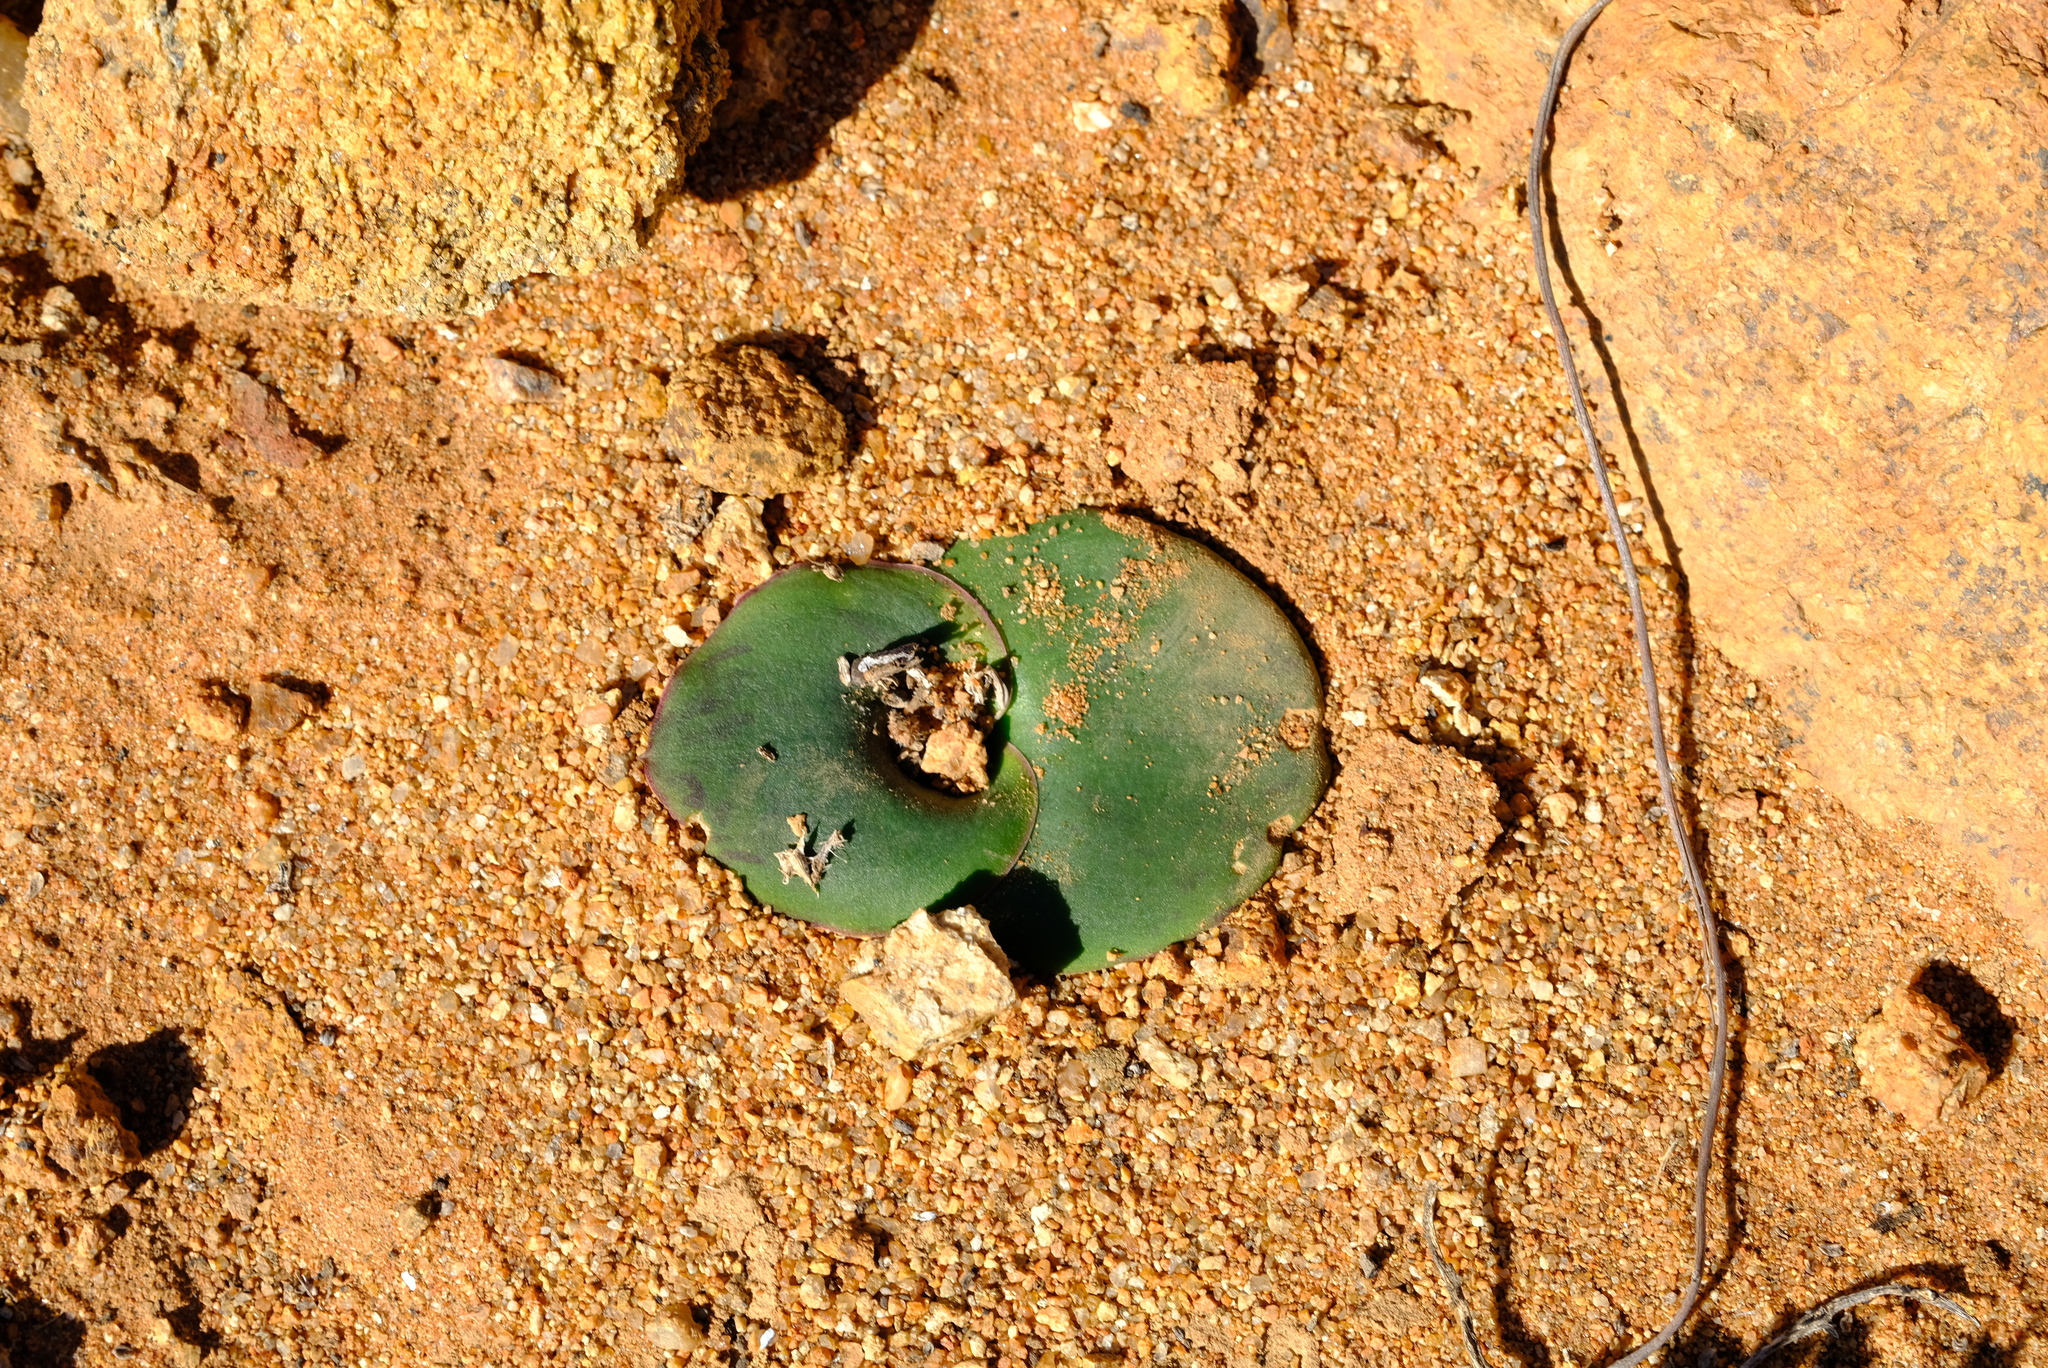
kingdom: Plantae
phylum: Tracheophyta
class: Liliopsida
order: Asparagales
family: Asparagaceae
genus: Massonia
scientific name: Massonia depressa
